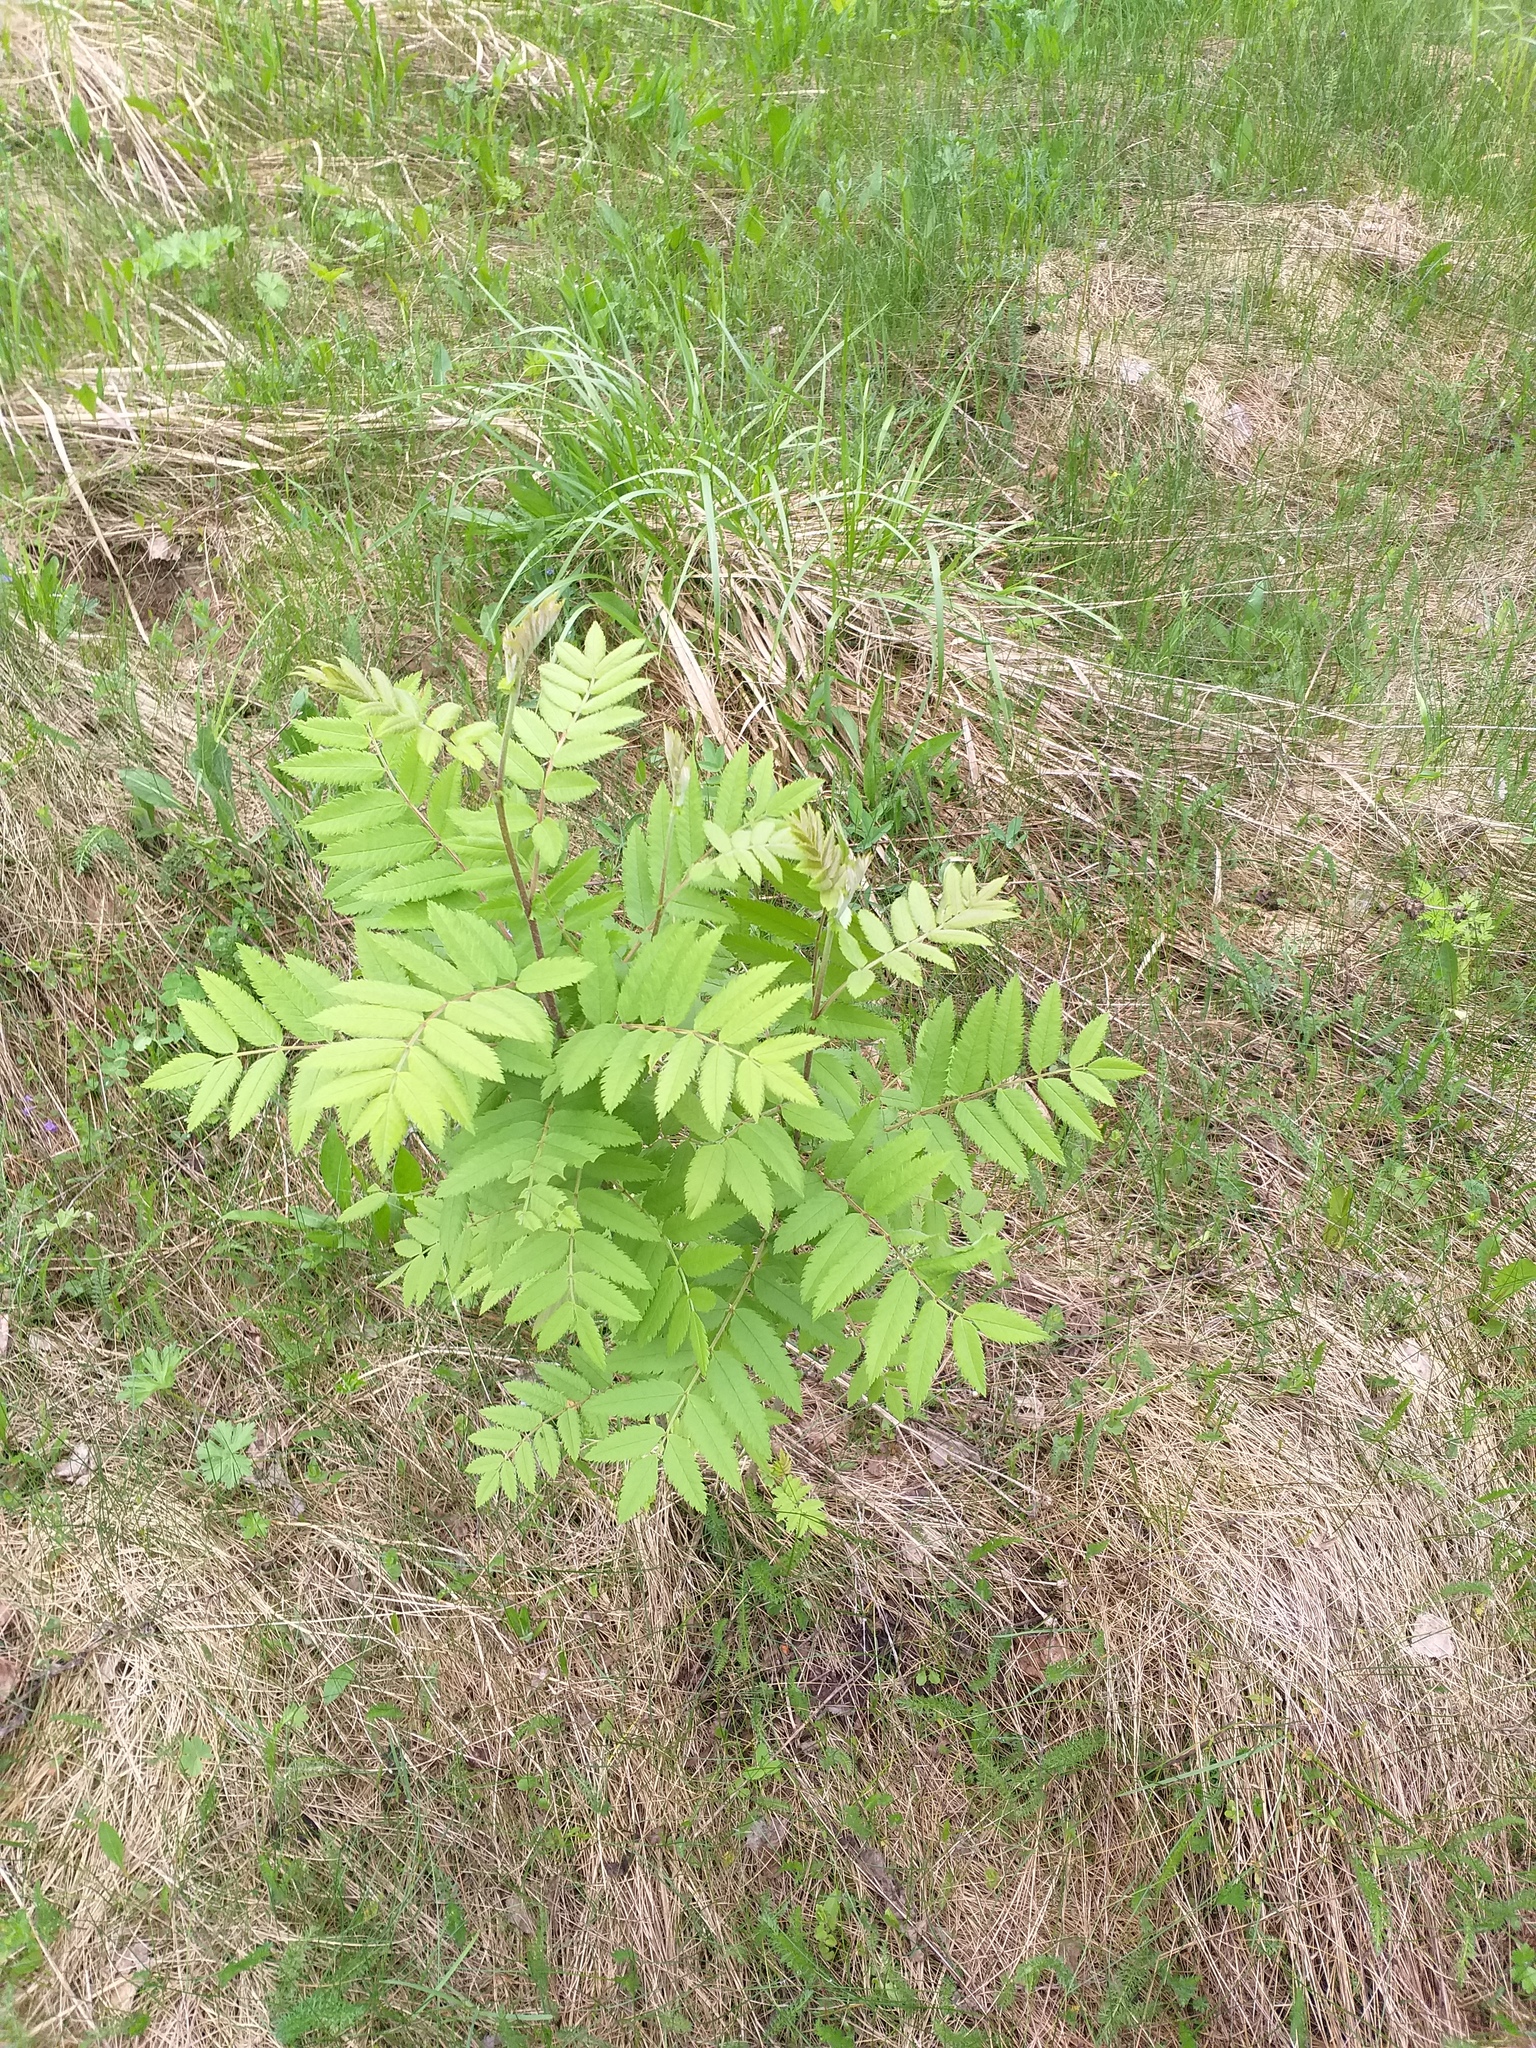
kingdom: Plantae
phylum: Tracheophyta
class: Magnoliopsida
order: Rosales
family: Rosaceae
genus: Sorbus
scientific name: Sorbus aucuparia
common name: Rowan
